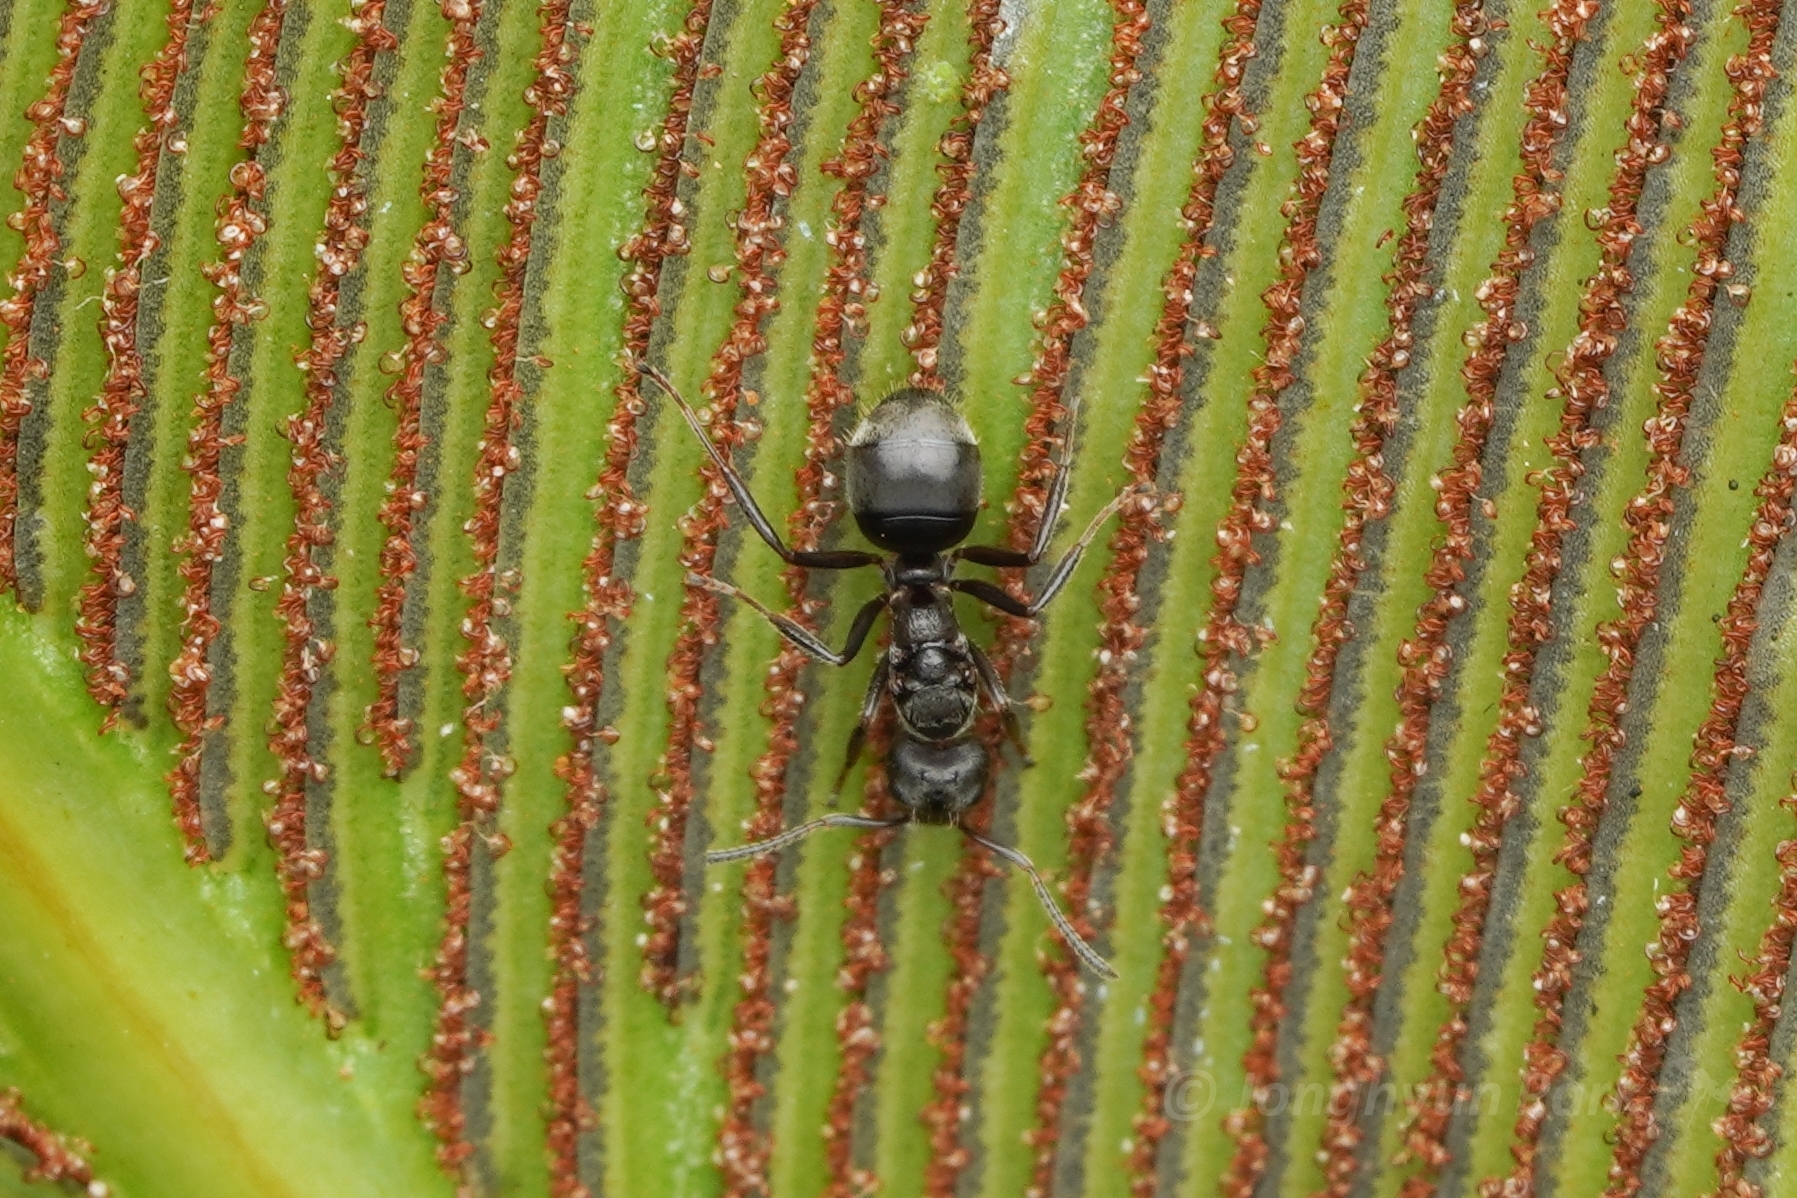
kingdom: Animalia
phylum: Arthropoda
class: Insecta
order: Hymenoptera
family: Formicidae
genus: Dolichoderus
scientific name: Dolichoderus thoracicus
